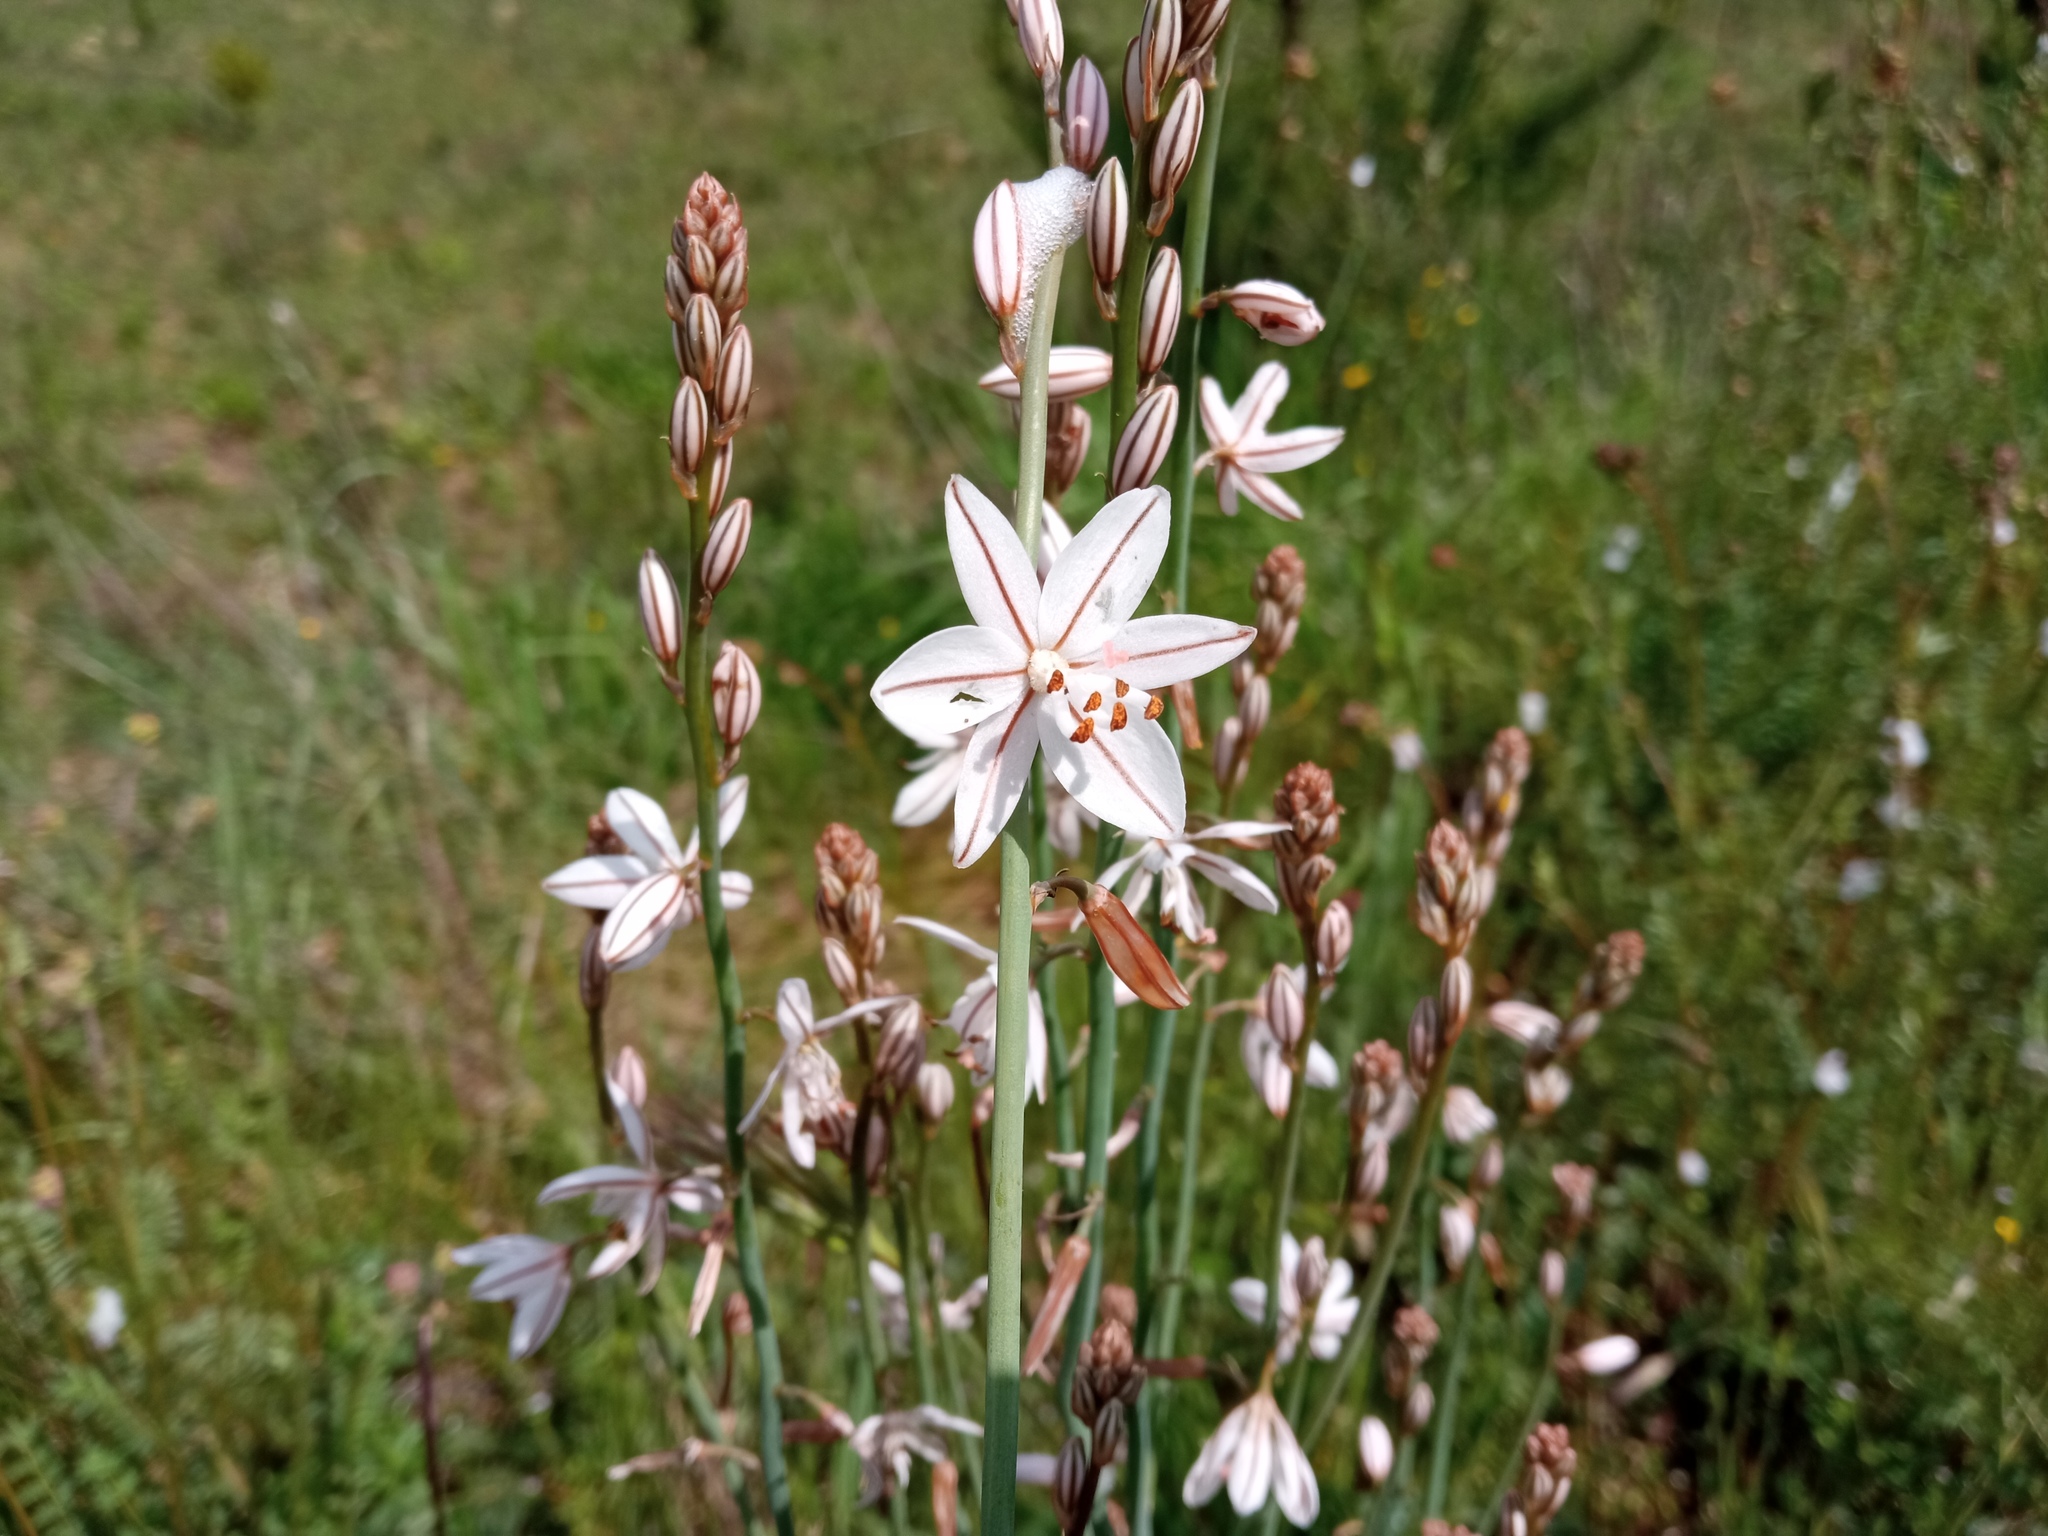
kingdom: Plantae
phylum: Tracheophyta
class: Liliopsida
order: Asparagales
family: Asphodelaceae
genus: Asphodelus
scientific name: Asphodelus fistulosus
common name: Onionweed
